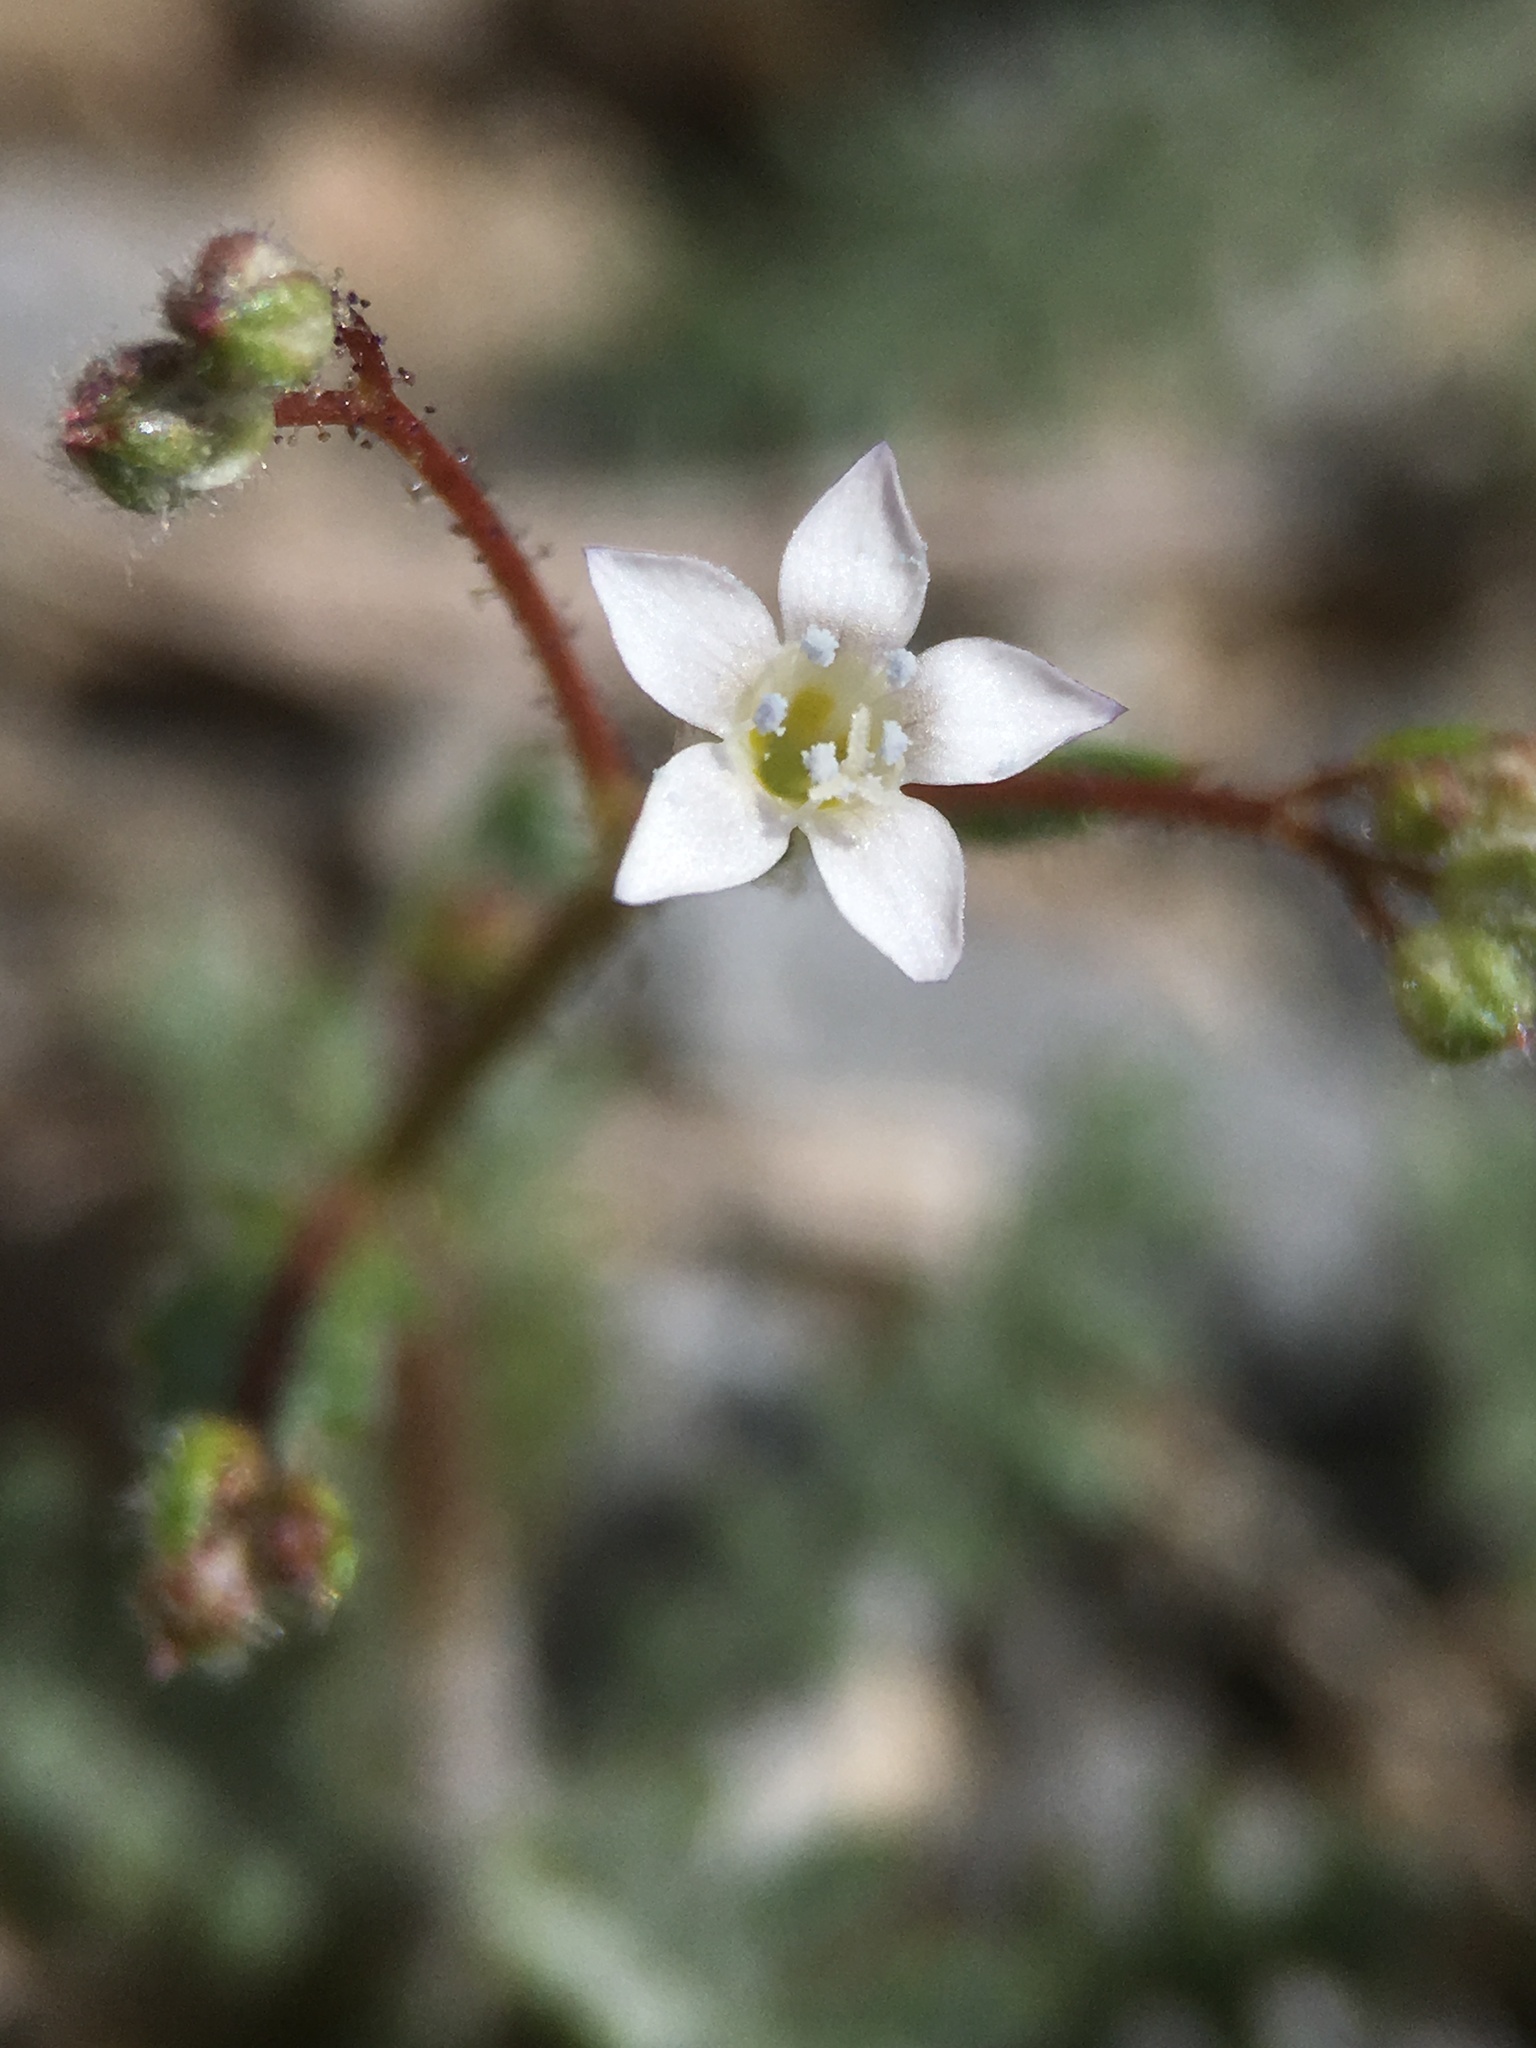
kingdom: Plantae
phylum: Tracheophyta
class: Magnoliopsida
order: Ericales
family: Polemoniaceae
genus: Gilia
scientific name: Gilia stellata
